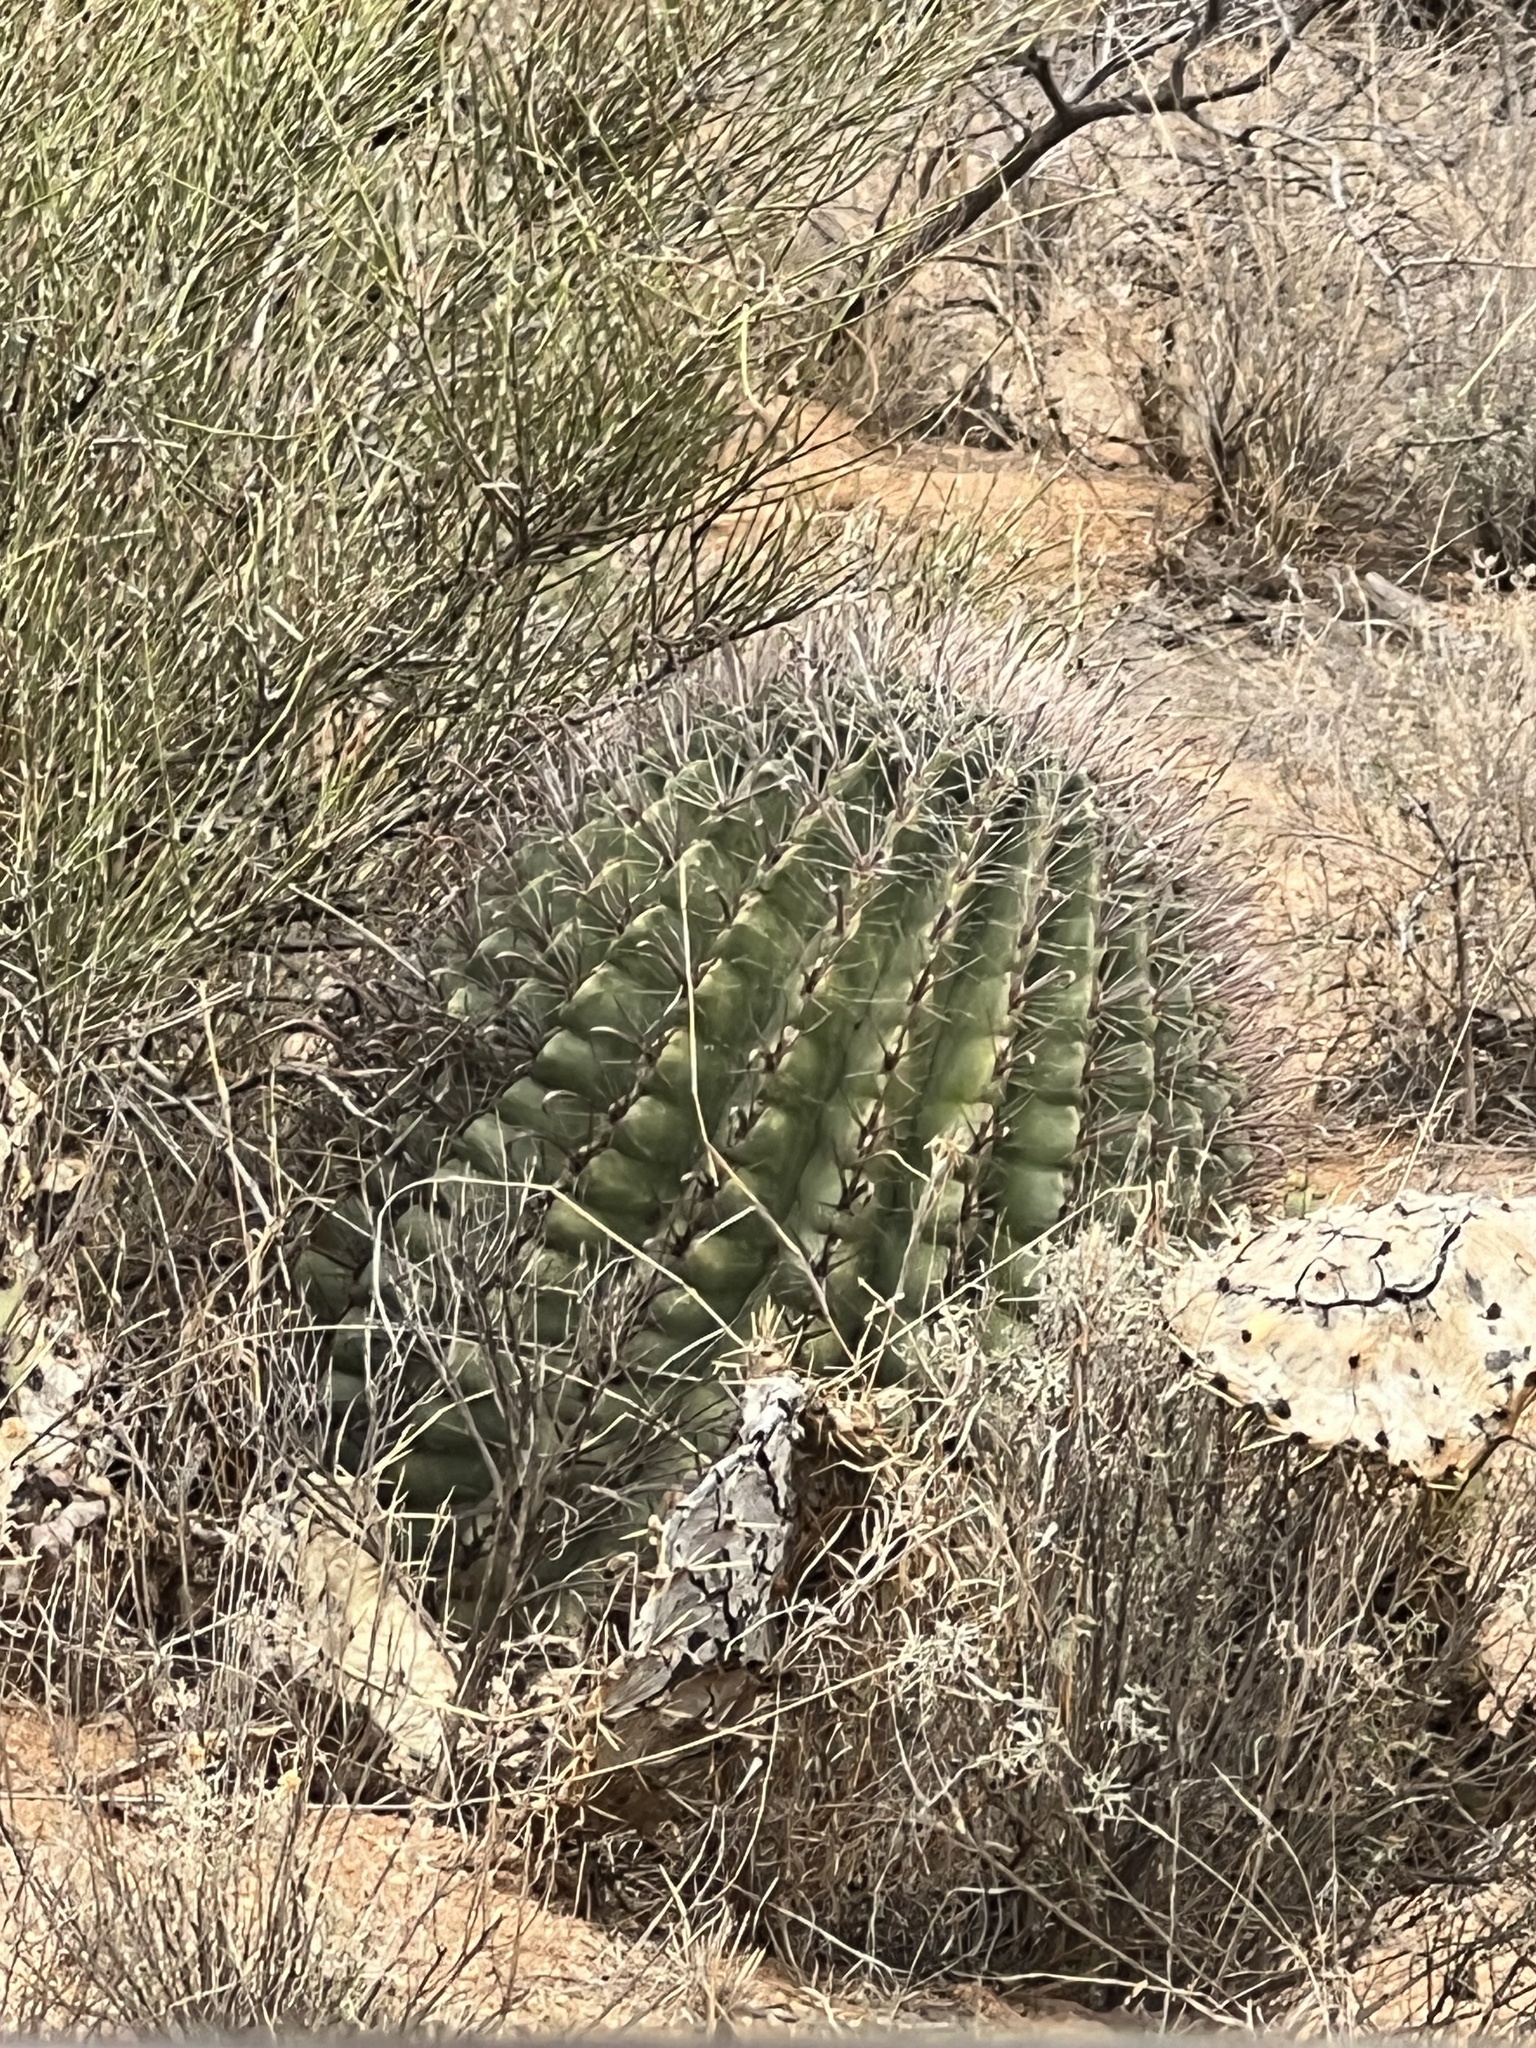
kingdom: Plantae
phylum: Tracheophyta
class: Magnoliopsida
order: Caryophyllales
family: Cactaceae
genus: Ferocactus
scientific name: Ferocactus wislizeni
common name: Candy barrel cactus
